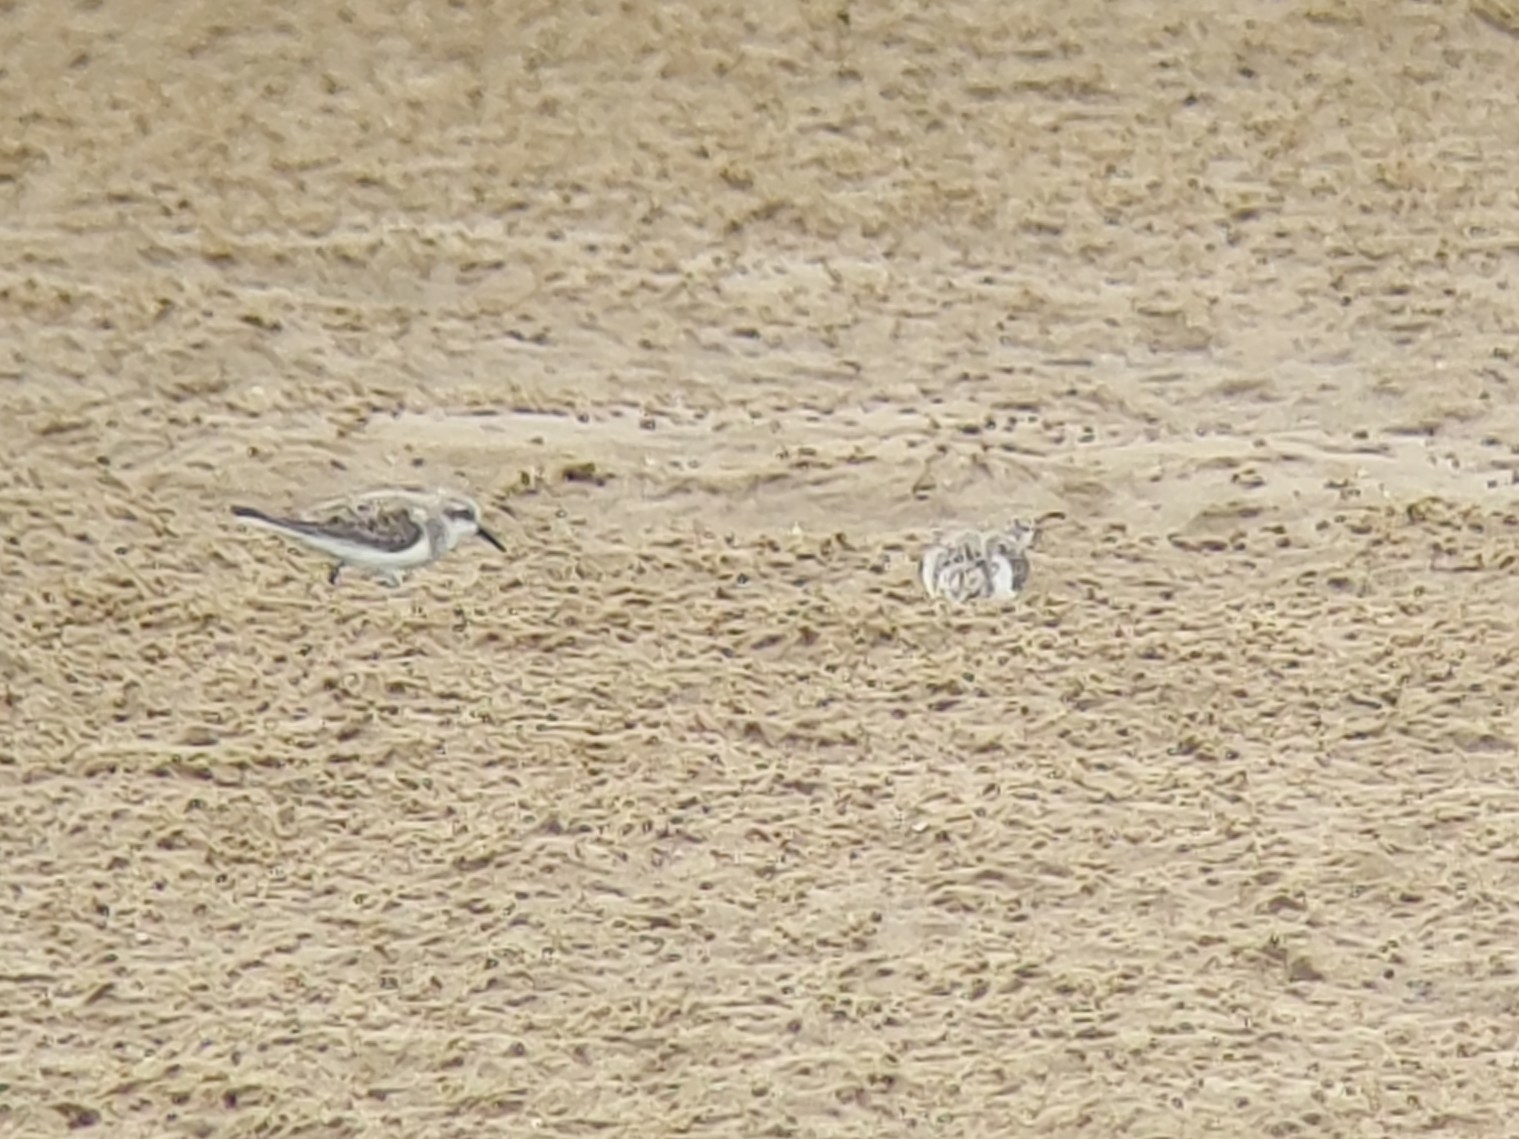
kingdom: Animalia
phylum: Chordata
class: Aves
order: Charadriiformes
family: Scolopacidae
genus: Calidris
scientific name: Calidris ruficollis
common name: Red-necked stint
